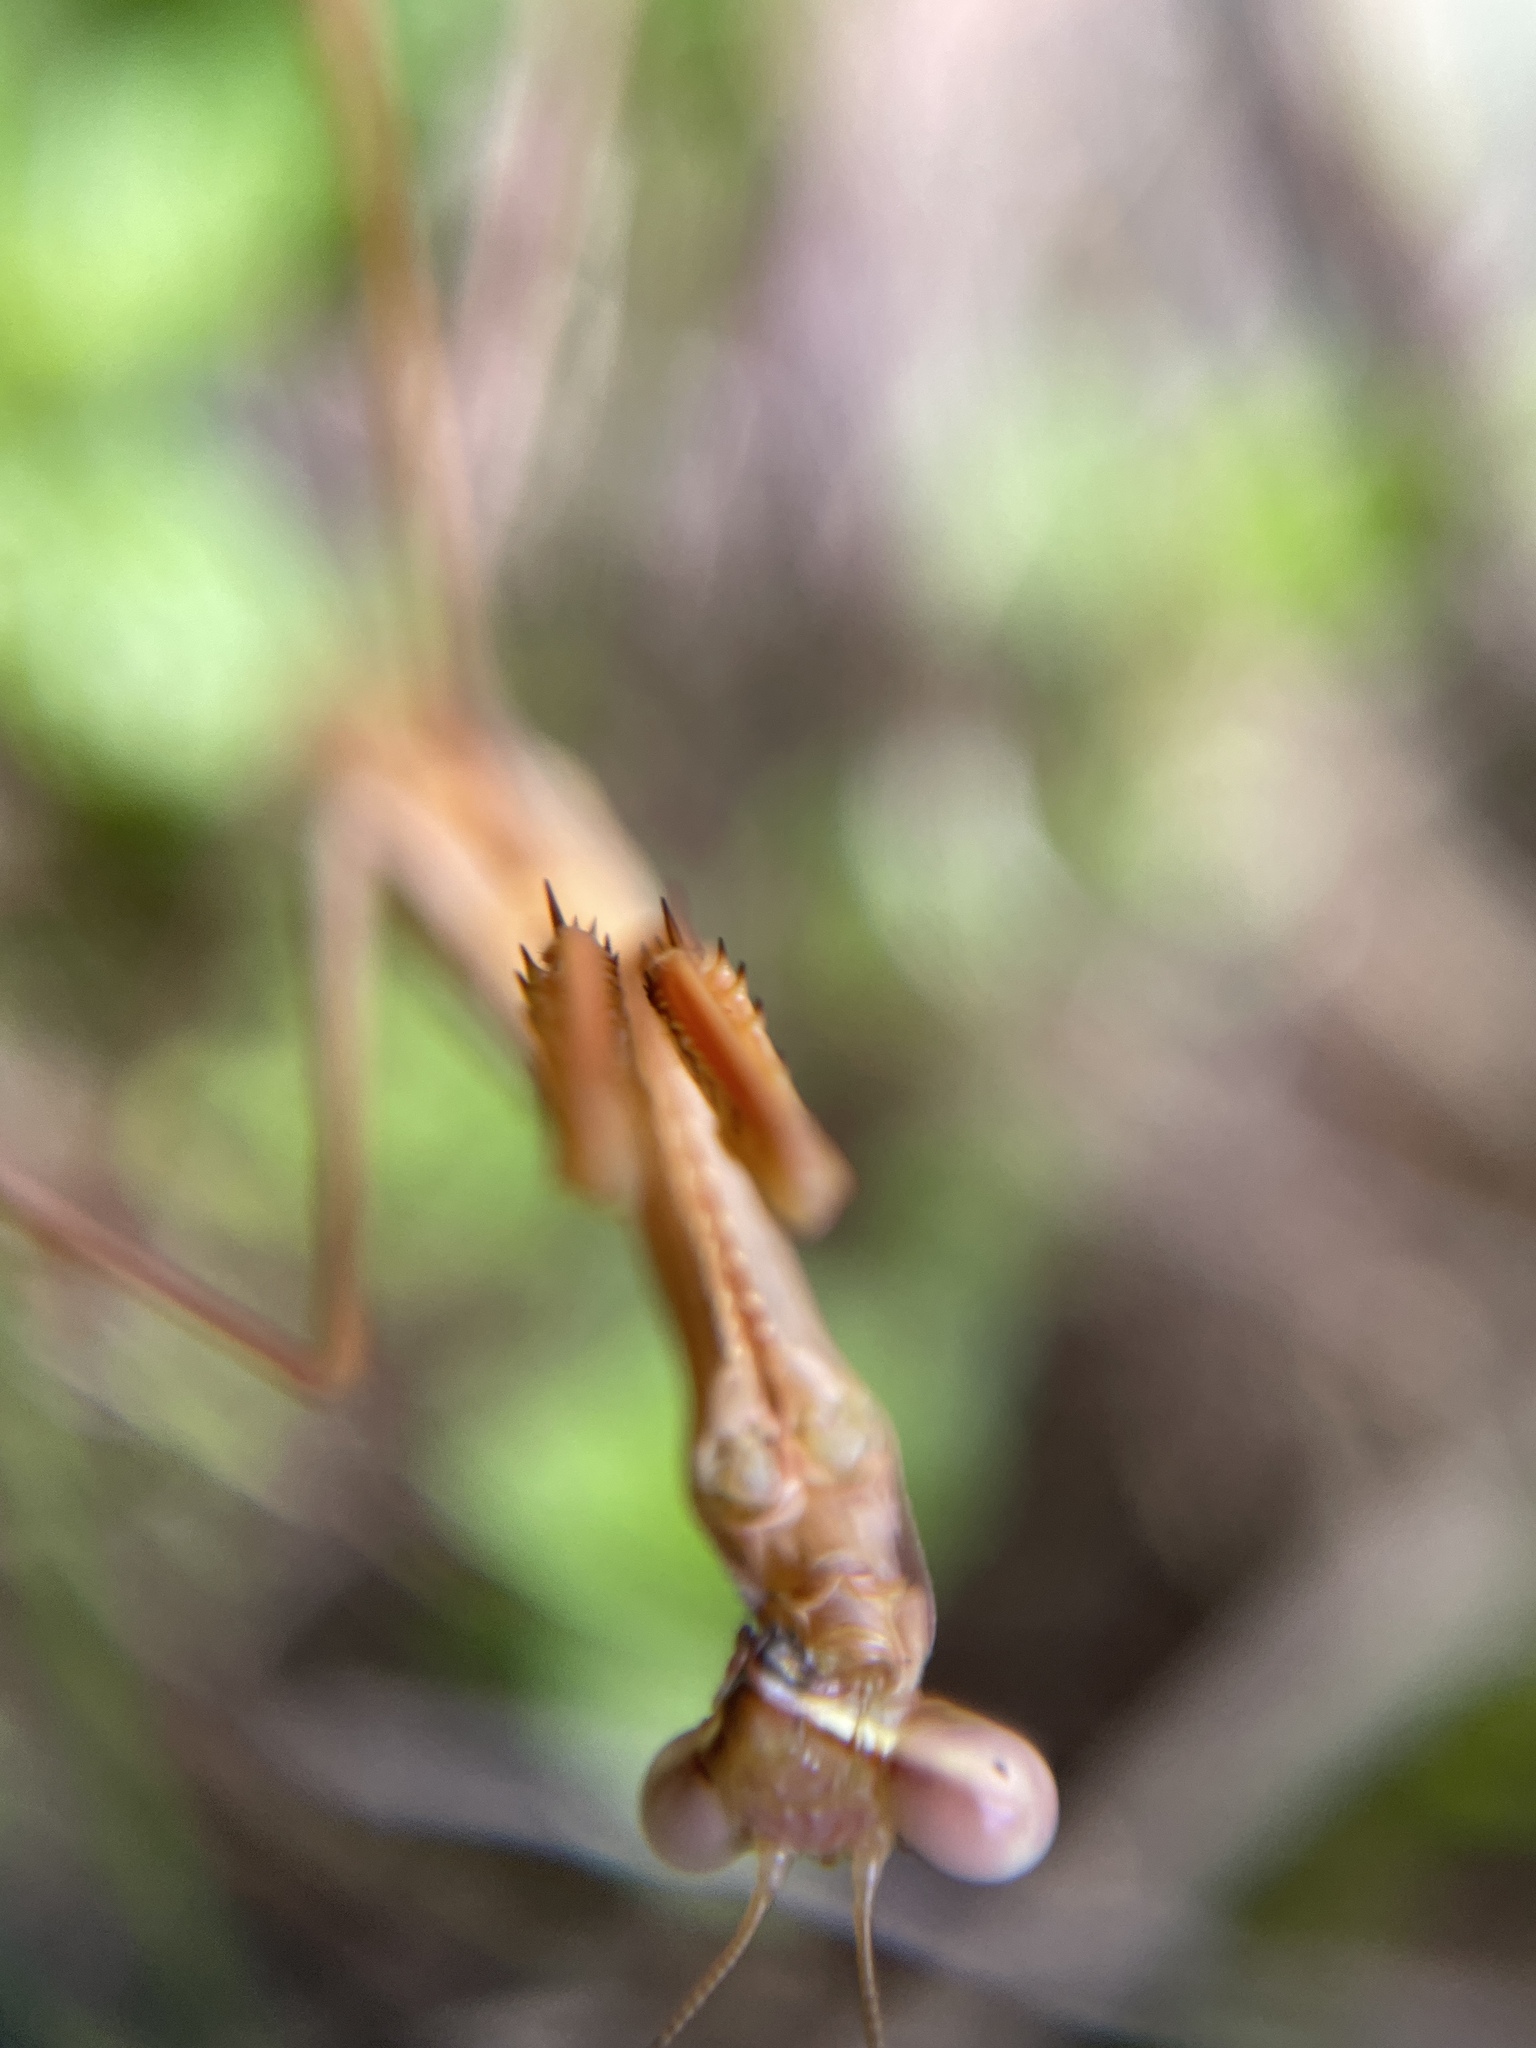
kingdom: Animalia
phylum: Arthropoda
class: Insecta
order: Mantodea
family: Mantidae
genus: Pseudomantis
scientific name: Pseudomantis albofimbriata
